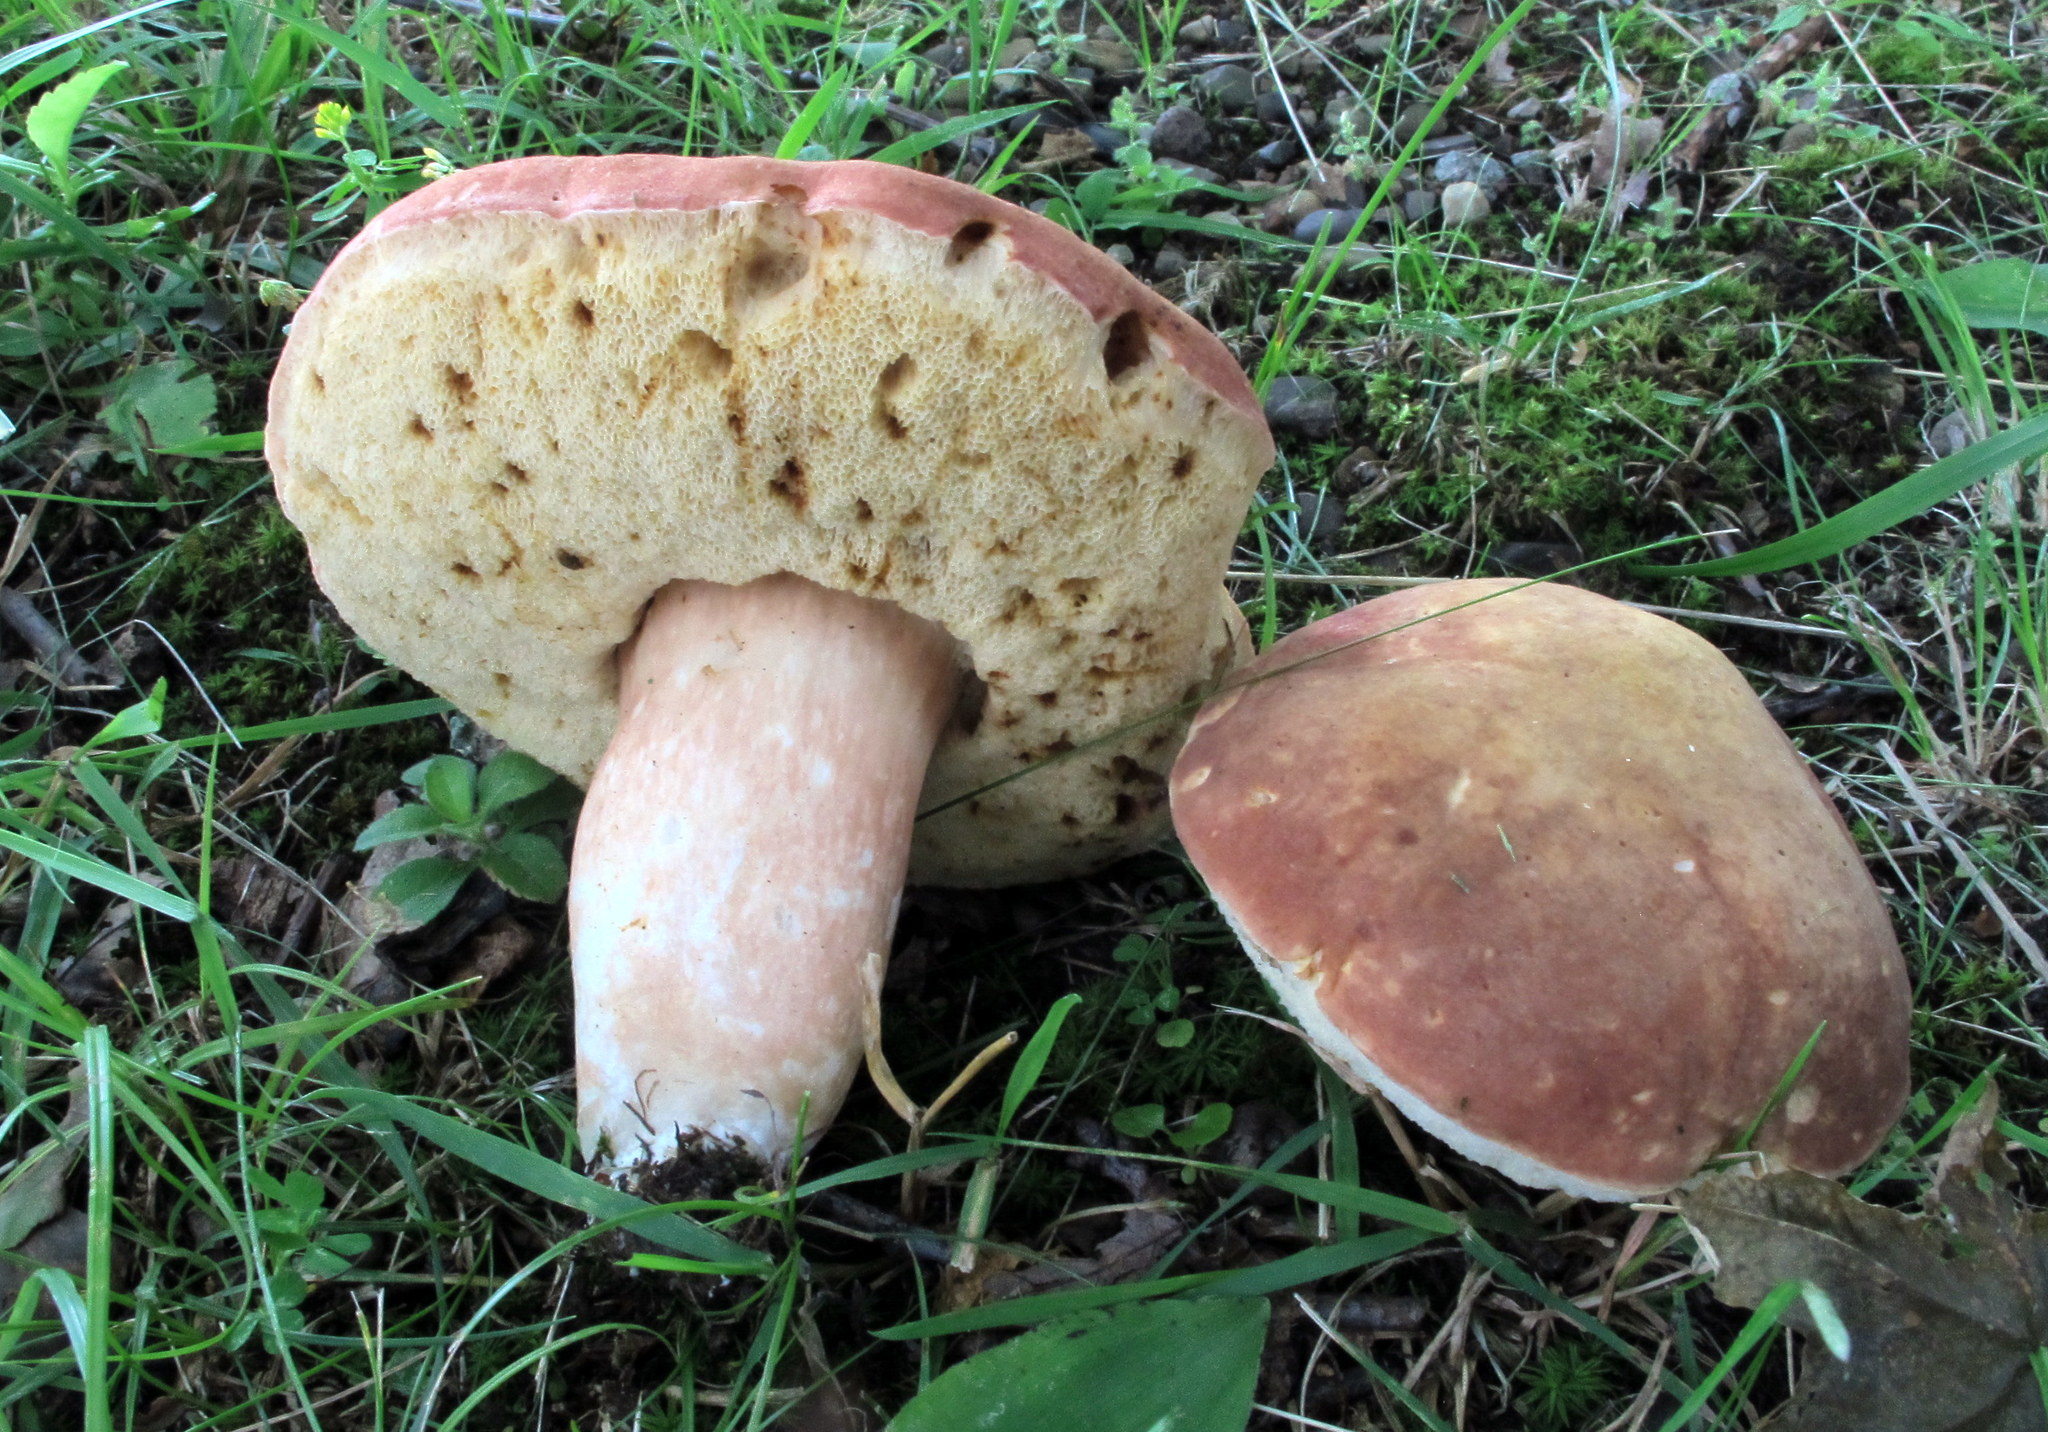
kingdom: Fungi
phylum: Basidiomycota
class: Agaricomycetes
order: Boletales
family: Boletaceae
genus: Xanthoconium
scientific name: Xanthoconium purpureum
